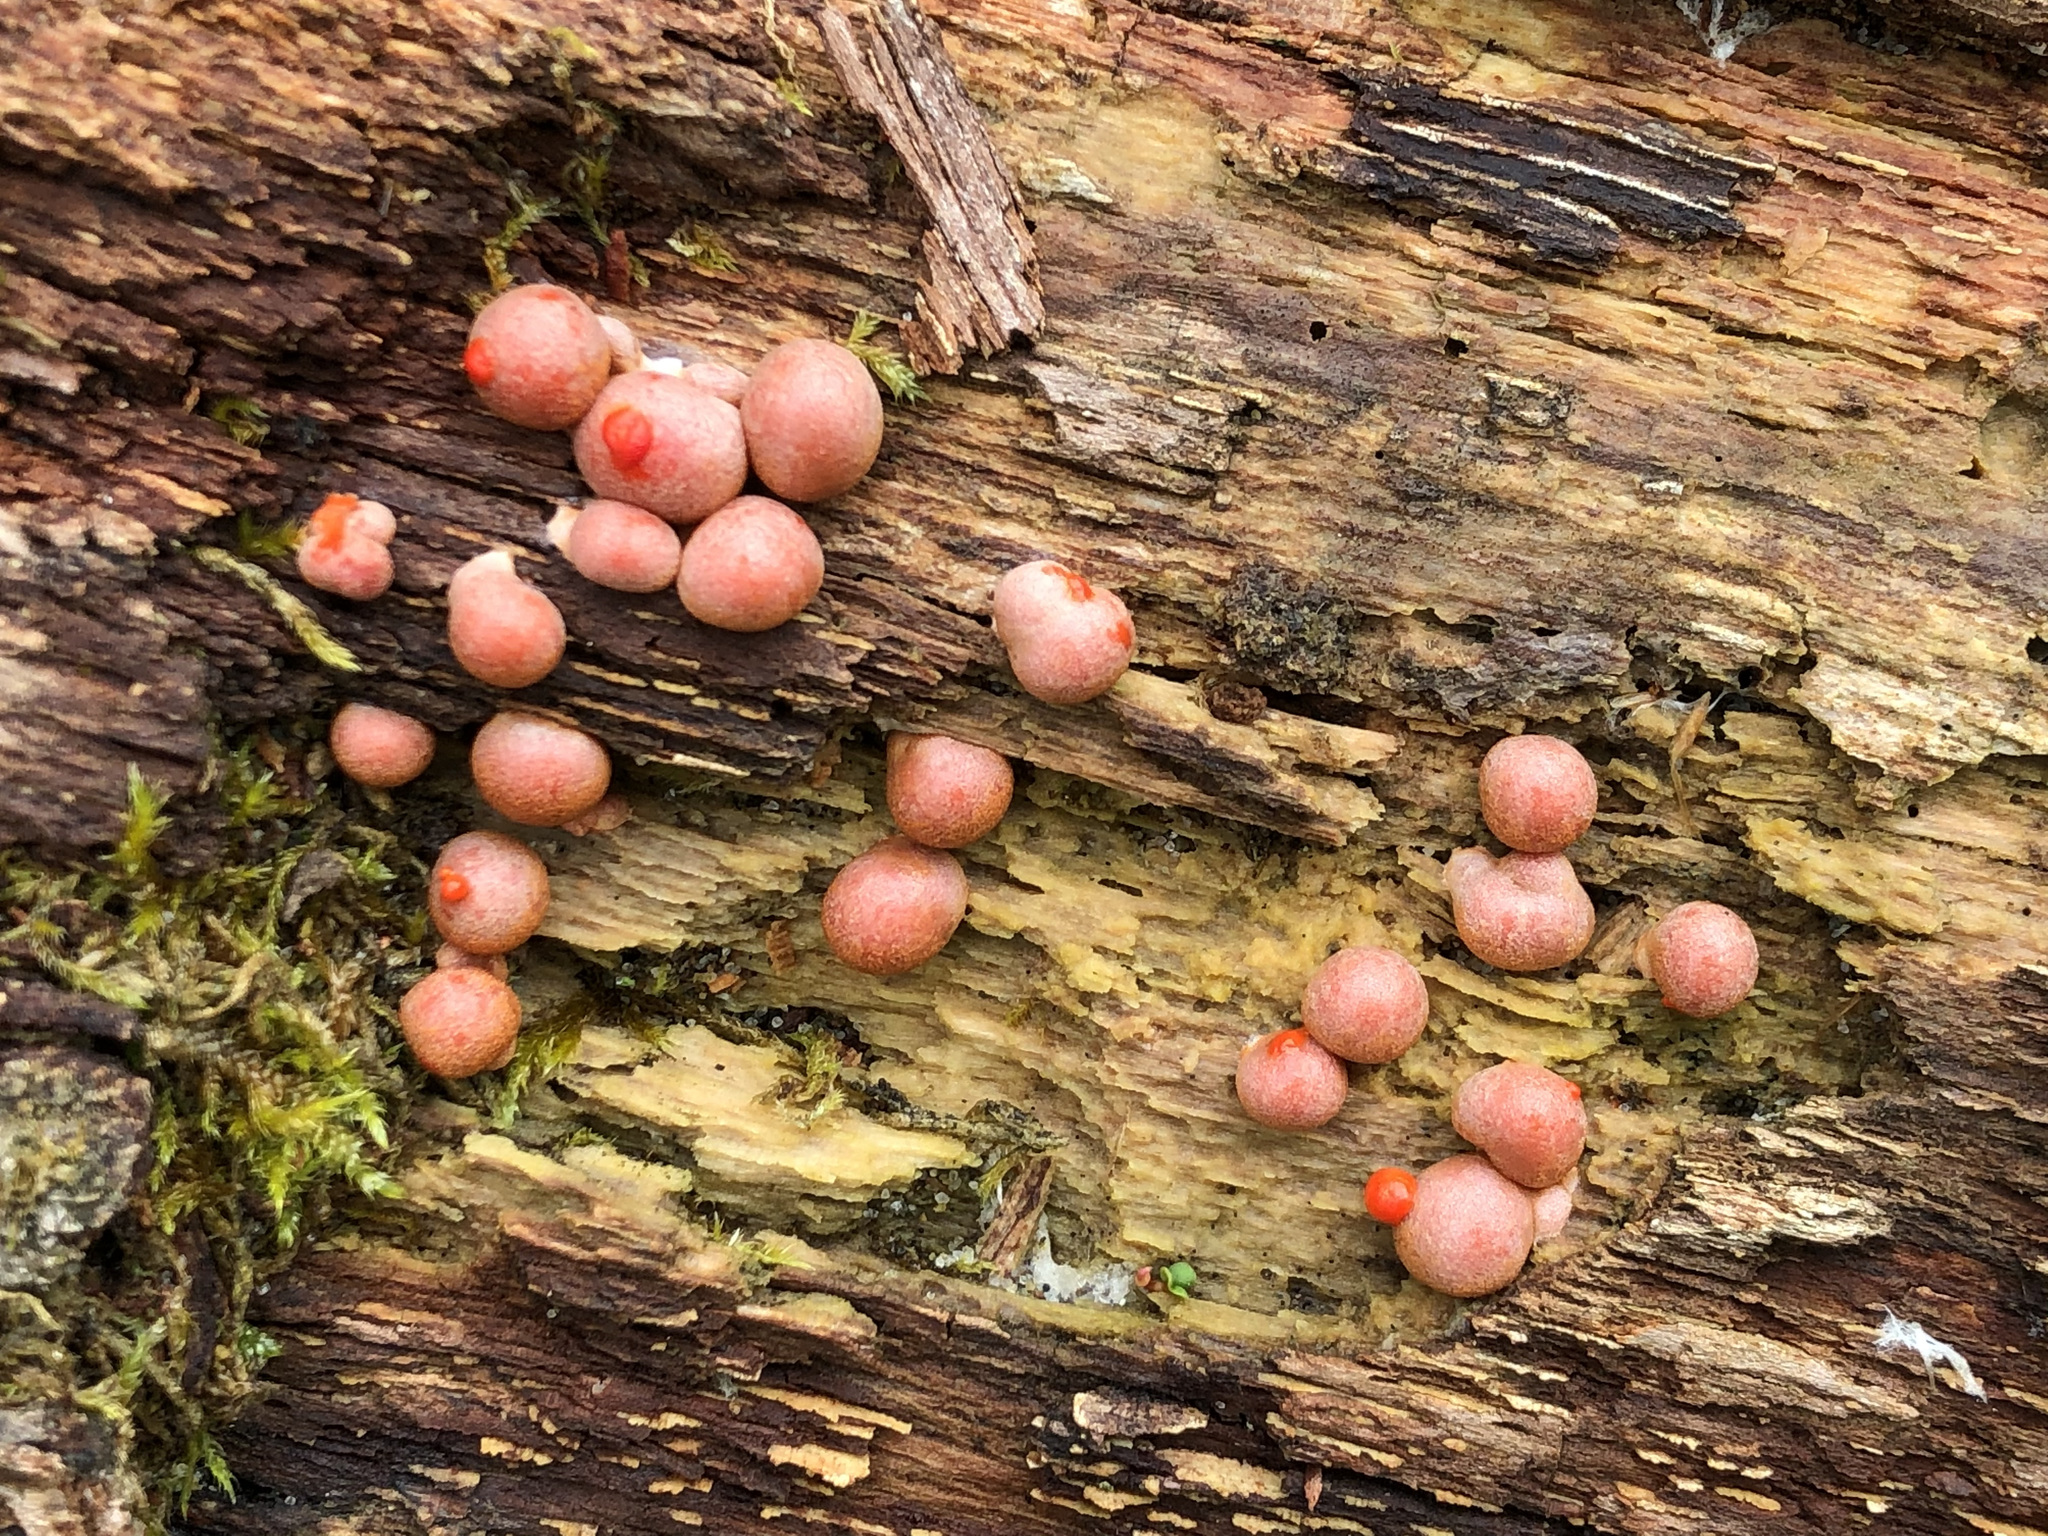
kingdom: Protozoa
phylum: Mycetozoa
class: Myxomycetes
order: Cribrariales
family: Tubiferaceae
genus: Lycogala
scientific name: Lycogala epidendrum
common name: Wolf's milk
